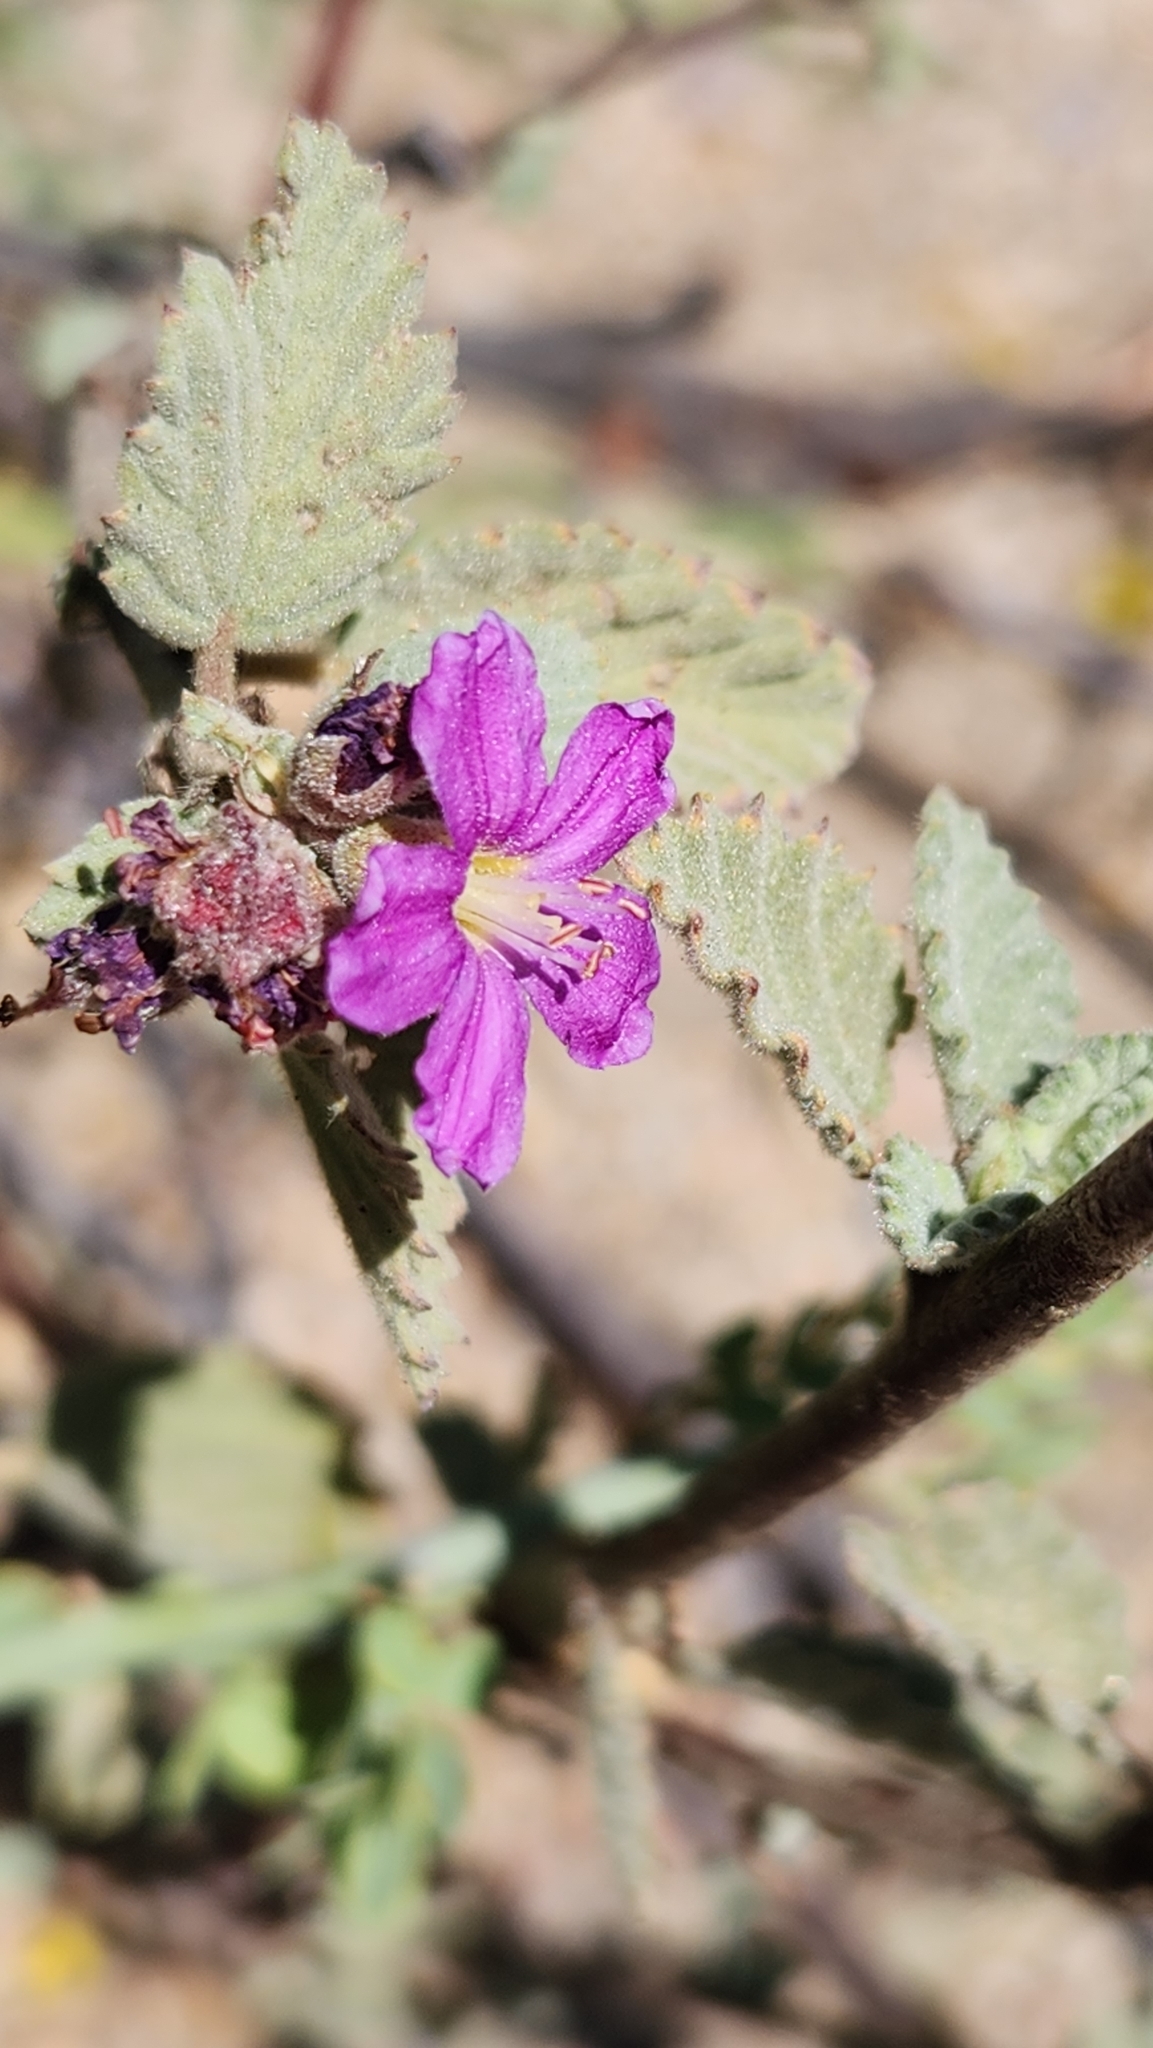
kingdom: Plantae
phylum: Tracheophyta
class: Magnoliopsida
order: Malvales
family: Malvaceae
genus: Melochia
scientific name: Melochia tomentosa
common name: Black torch
